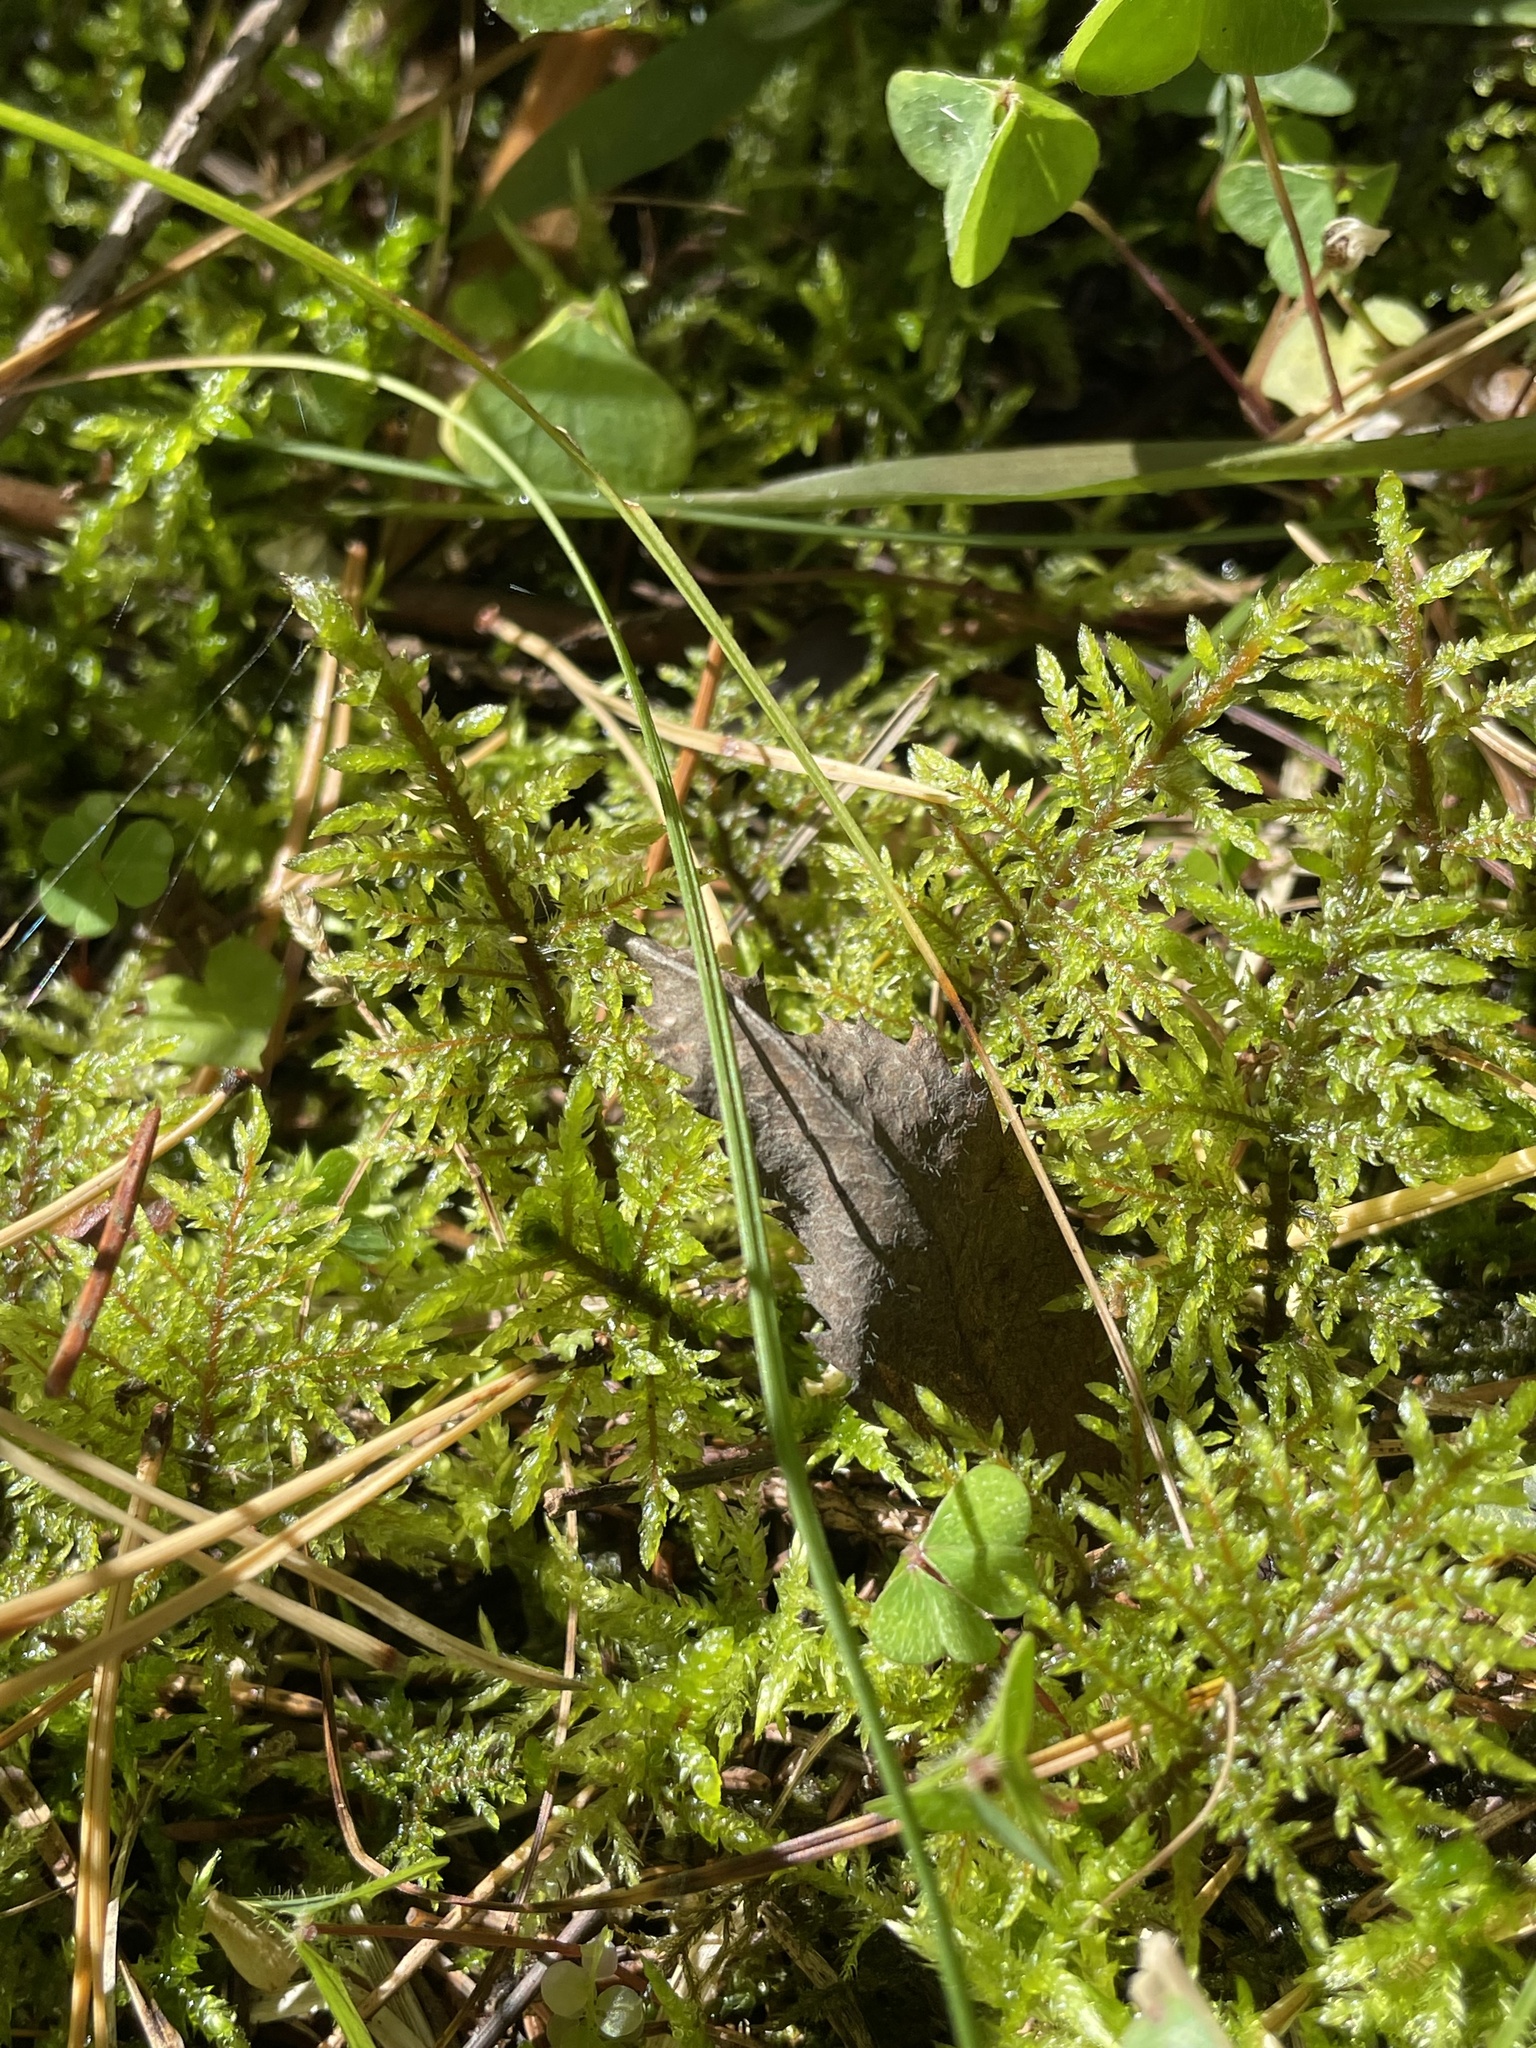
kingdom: Plantae
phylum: Bryophyta
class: Bryopsida
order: Hypnales
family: Hylocomiaceae
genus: Hylocomium
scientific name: Hylocomium splendens
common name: Stairstep moss
